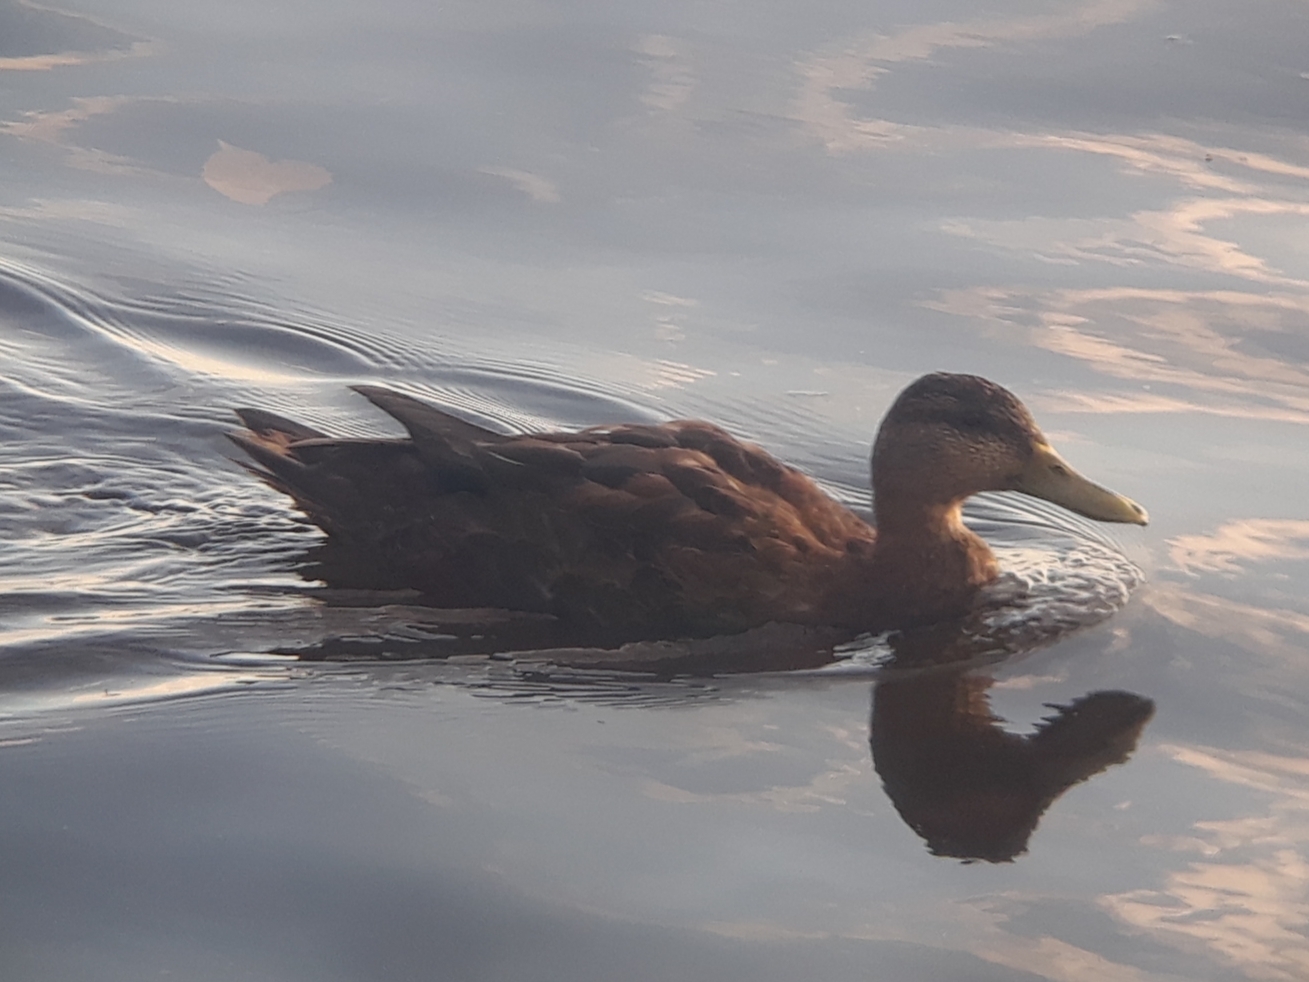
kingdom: Animalia
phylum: Chordata
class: Aves
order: Anseriformes
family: Anatidae
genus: Anas
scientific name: Anas rubripes
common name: American black duck
